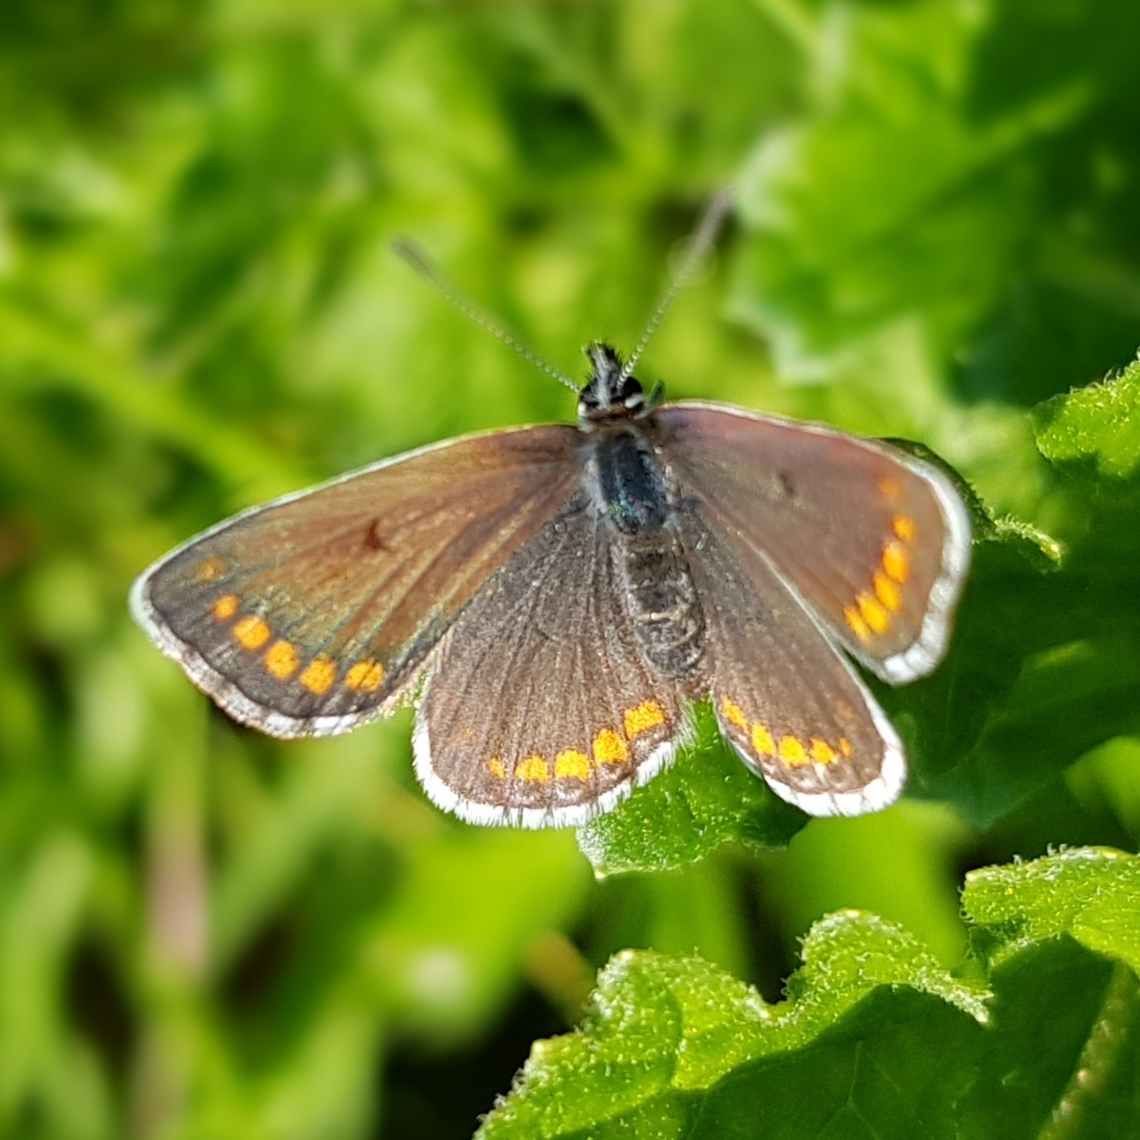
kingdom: Animalia
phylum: Arthropoda
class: Insecta
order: Lepidoptera
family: Lycaenidae
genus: Aricia
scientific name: Aricia agestis
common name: Brown argus
